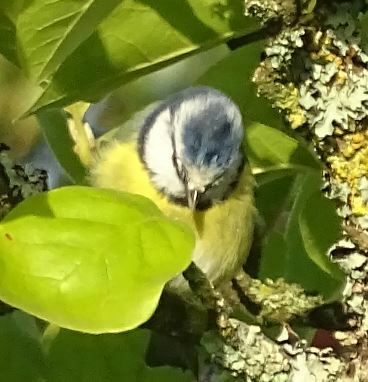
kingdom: Animalia
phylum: Chordata
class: Aves
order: Passeriformes
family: Paridae
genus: Cyanistes
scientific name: Cyanistes caeruleus
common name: Eurasian blue tit
